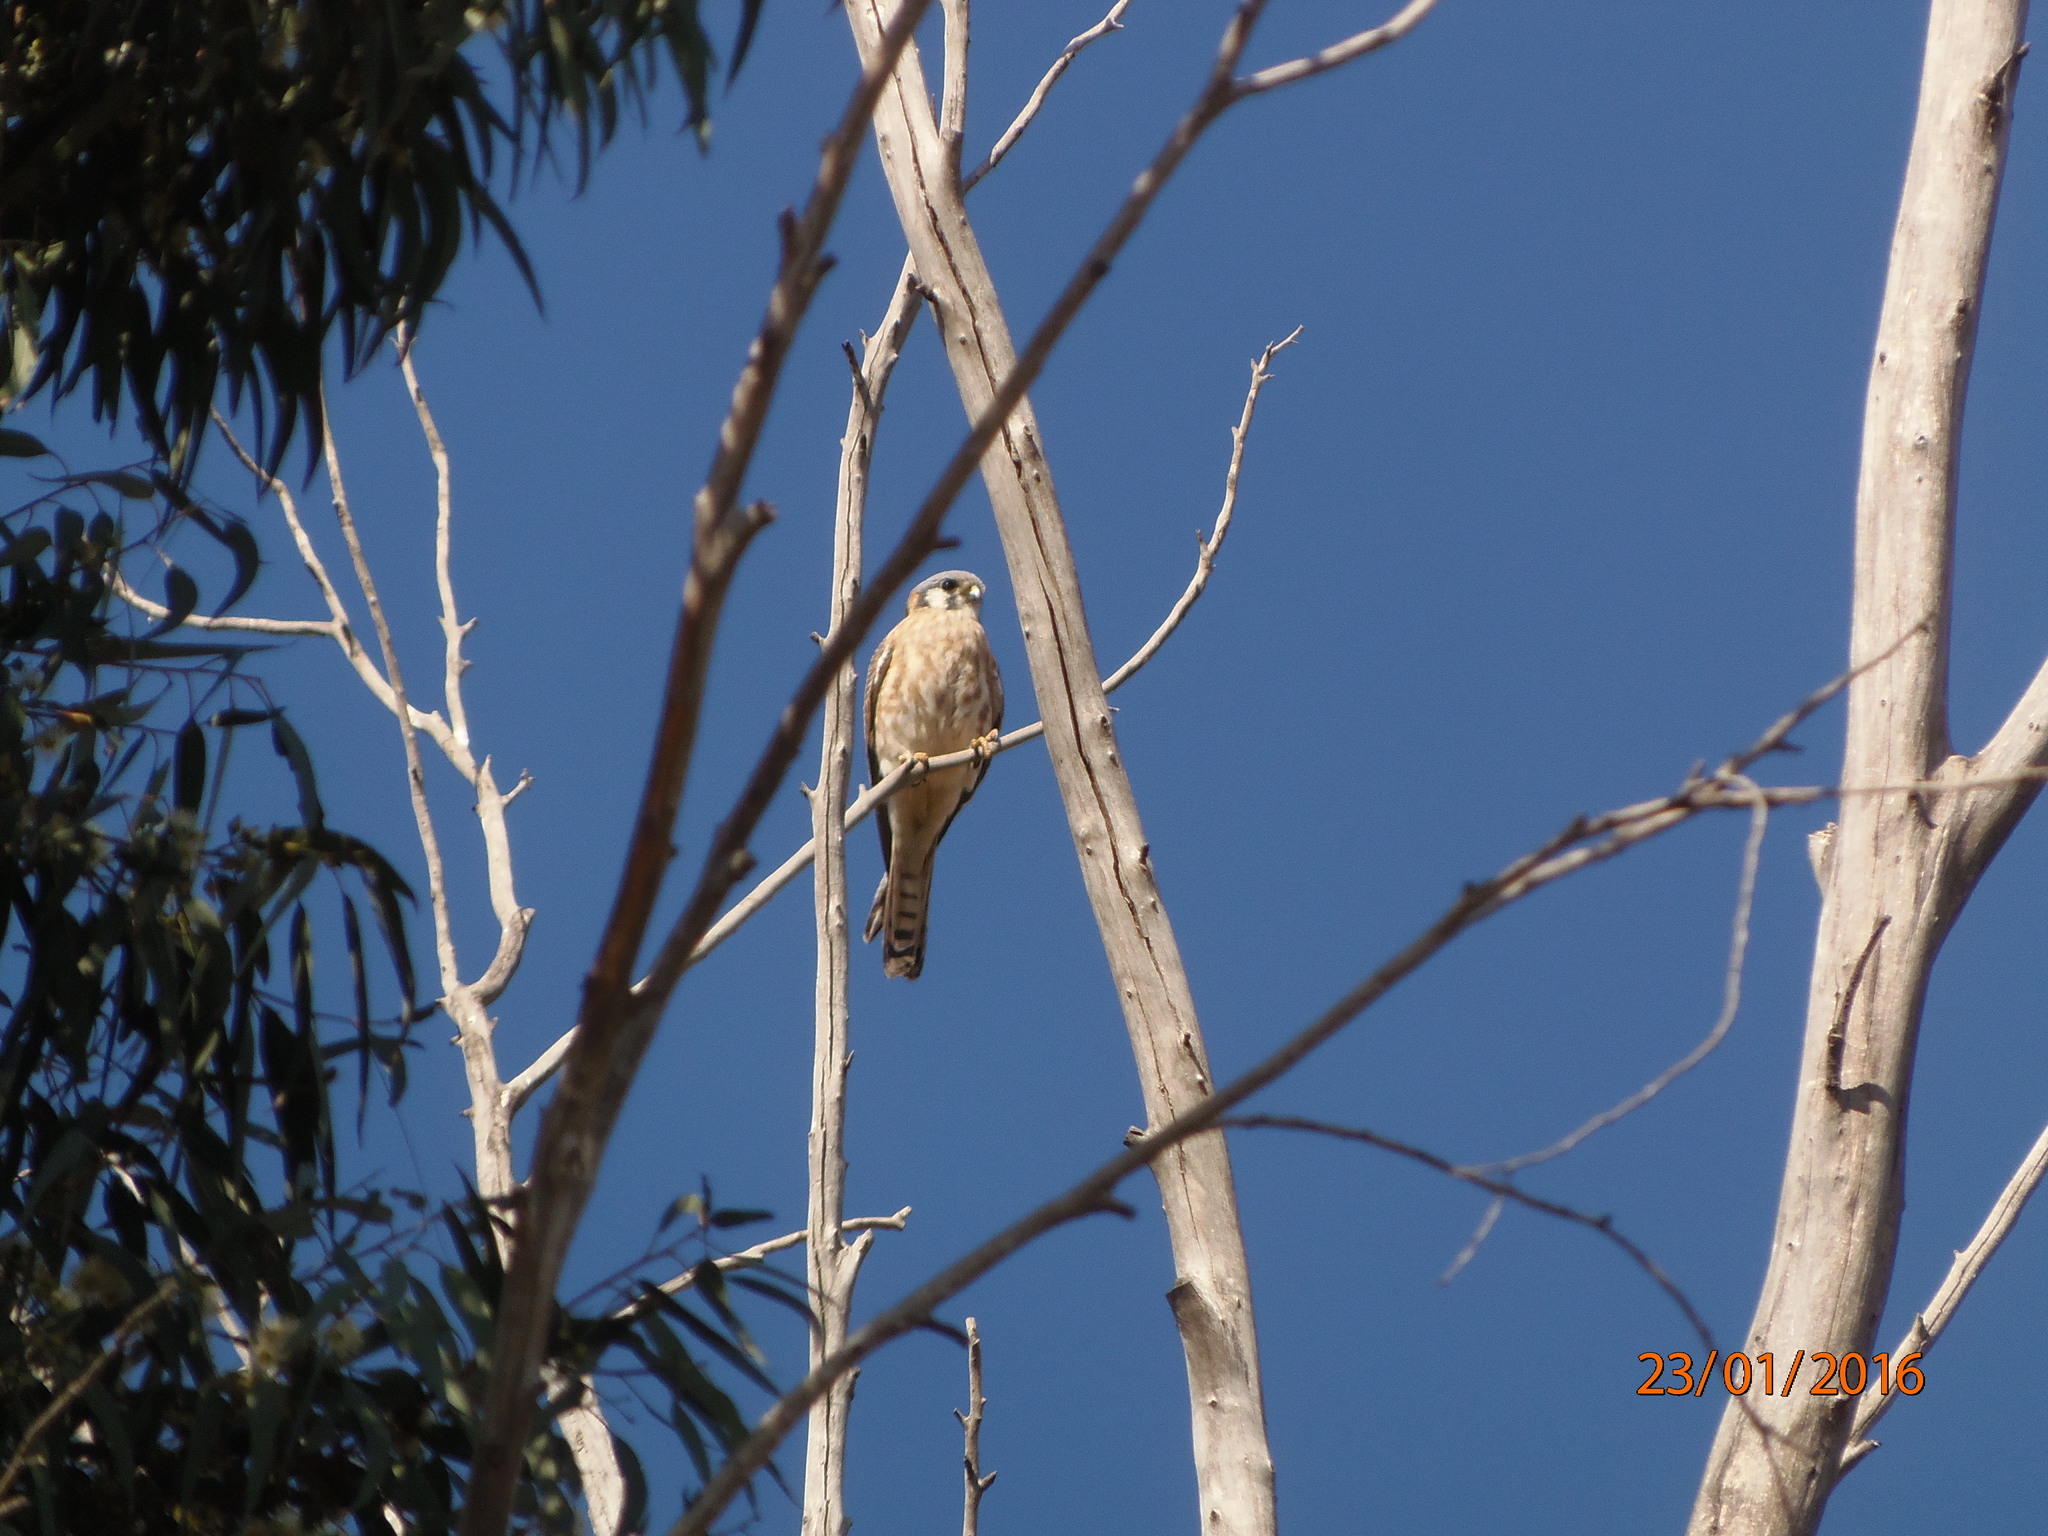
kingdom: Animalia
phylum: Chordata
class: Aves
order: Falconiformes
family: Falconidae
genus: Falco
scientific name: Falco sparverius
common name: American kestrel
